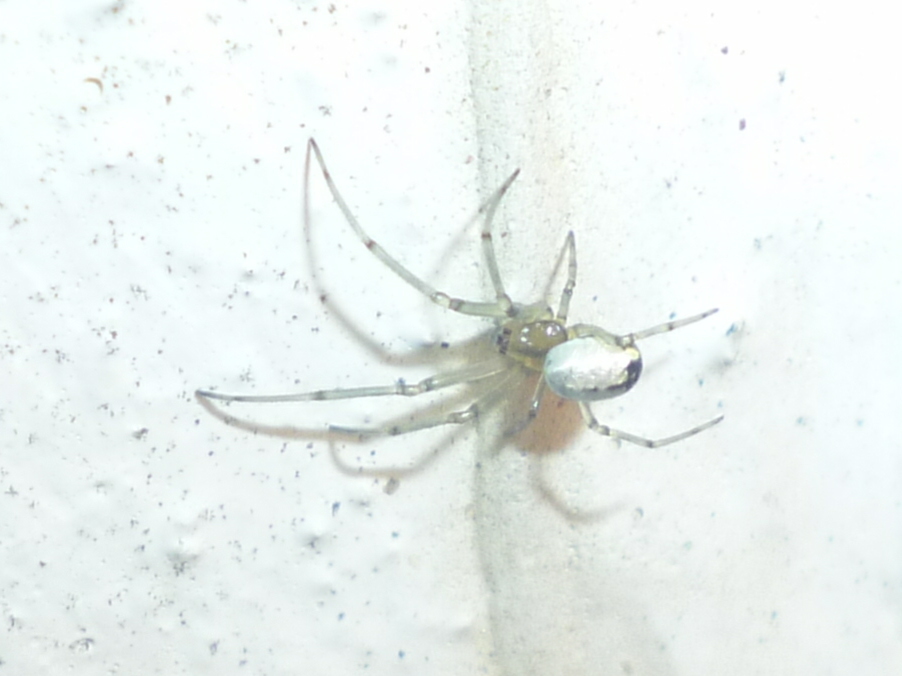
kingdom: Animalia
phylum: Arthropoda
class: Arachnida
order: Araneae
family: Tetragnathidae
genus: Leucauge
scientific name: Leucauge venusta
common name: Longjawed orb weavers
